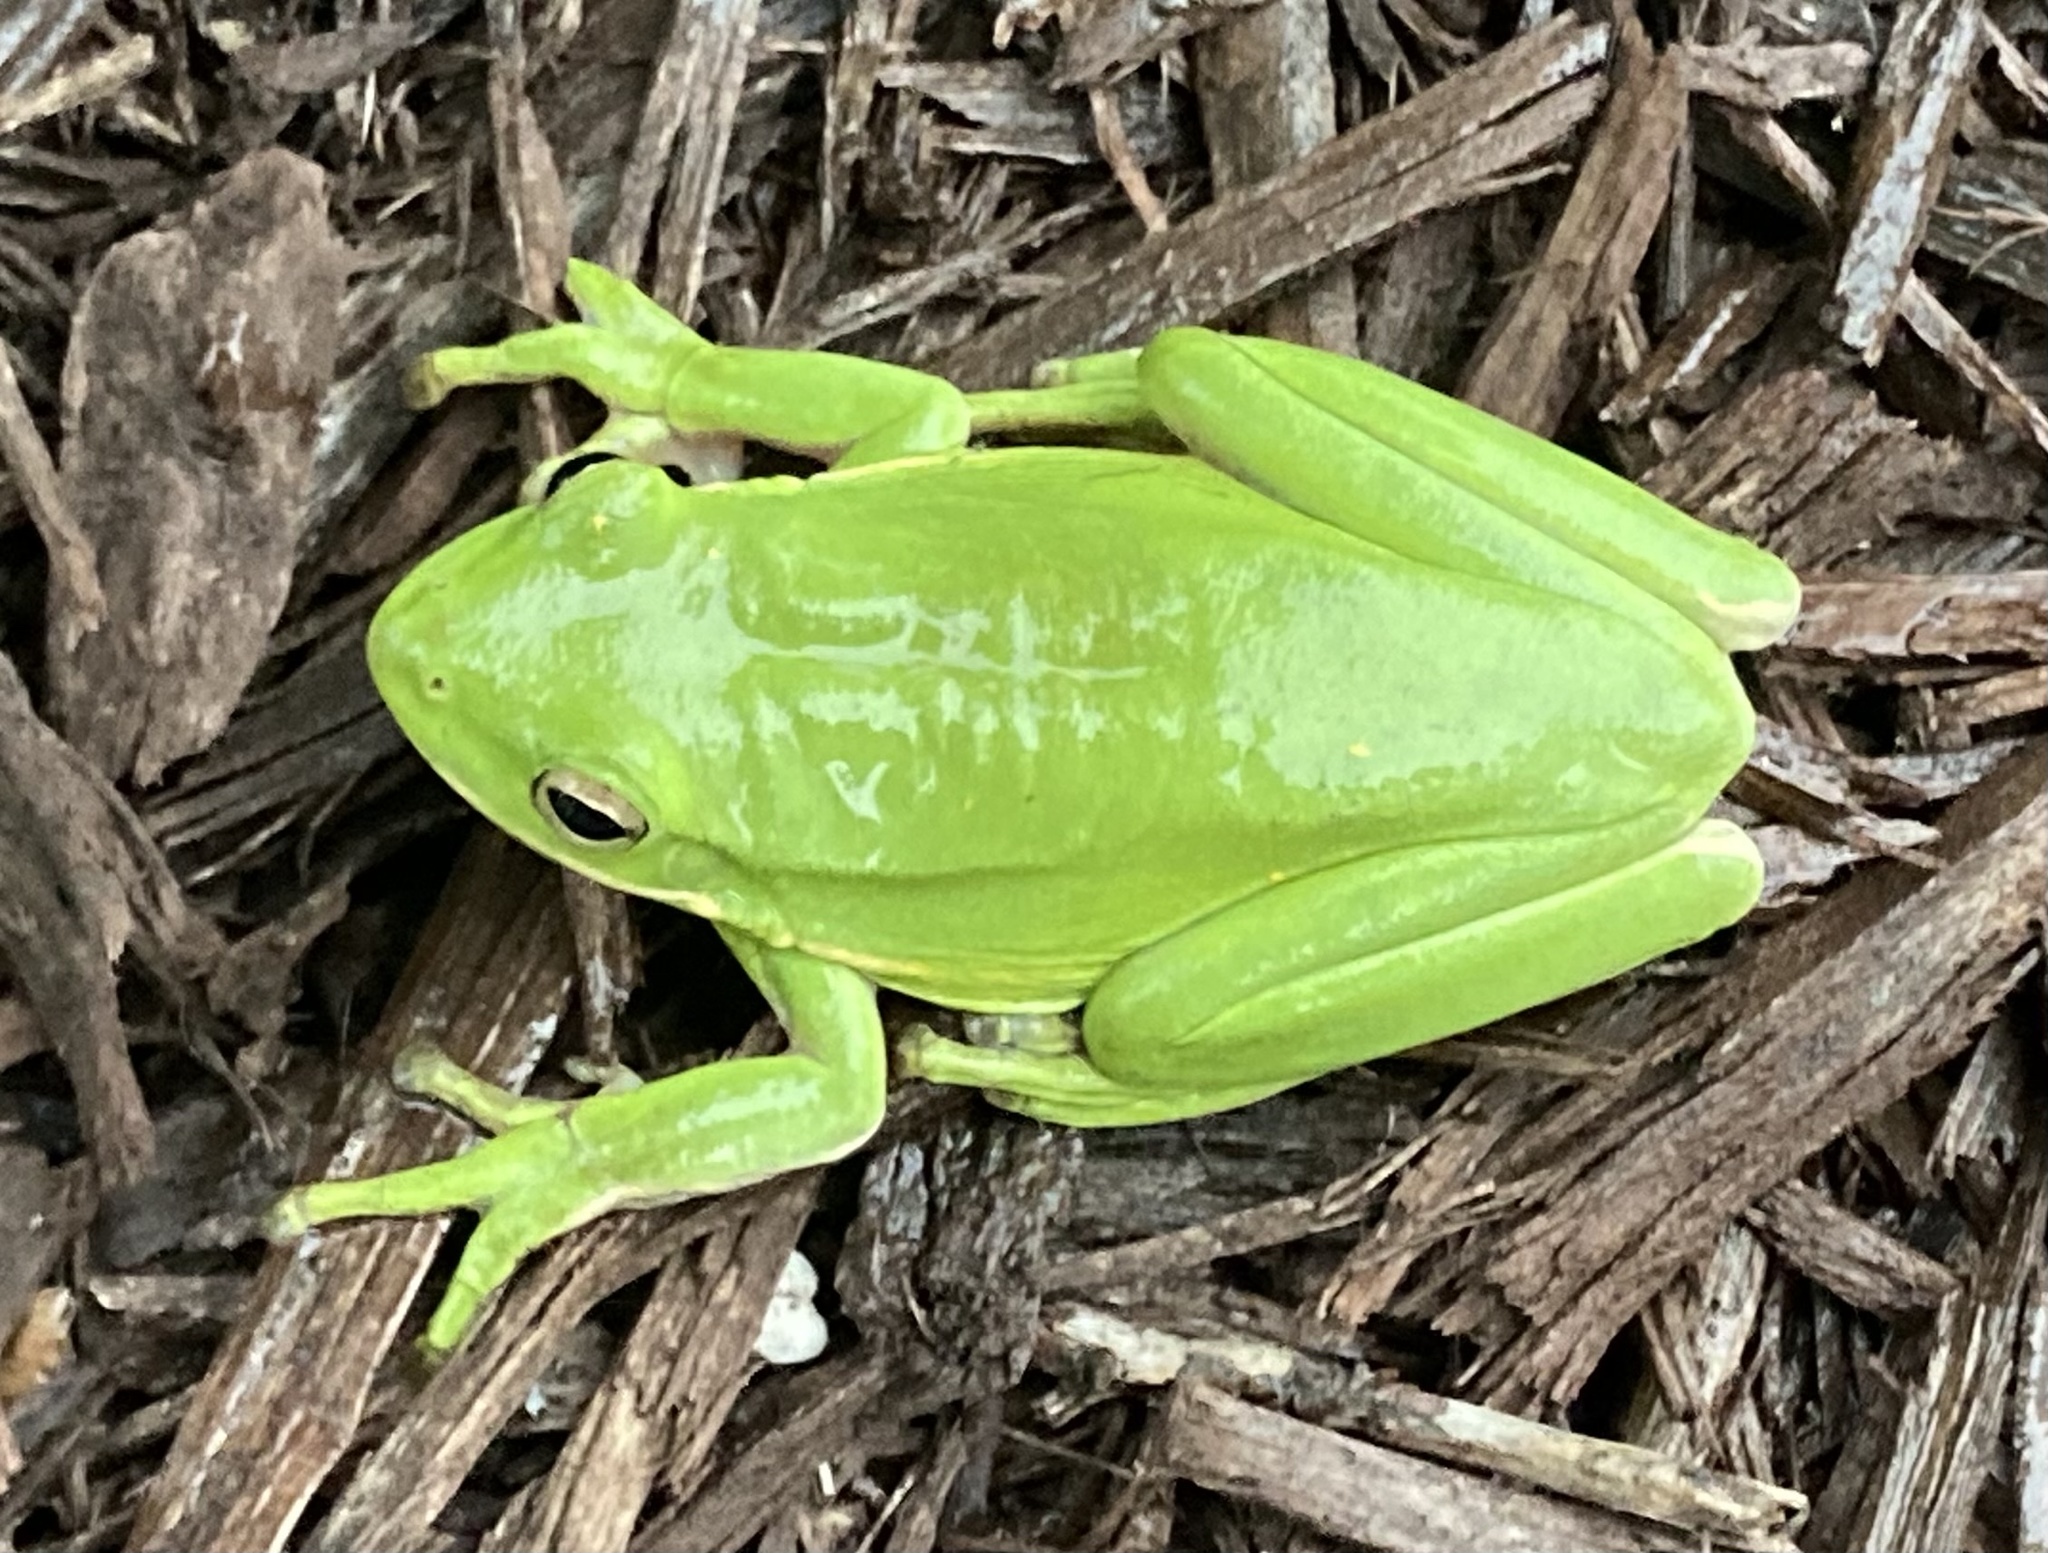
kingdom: Animalia
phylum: Chordata
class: Amphibia
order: Anura
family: Hylidae
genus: Dryophytes
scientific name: Dryophytes cinereus
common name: Green treefrog
